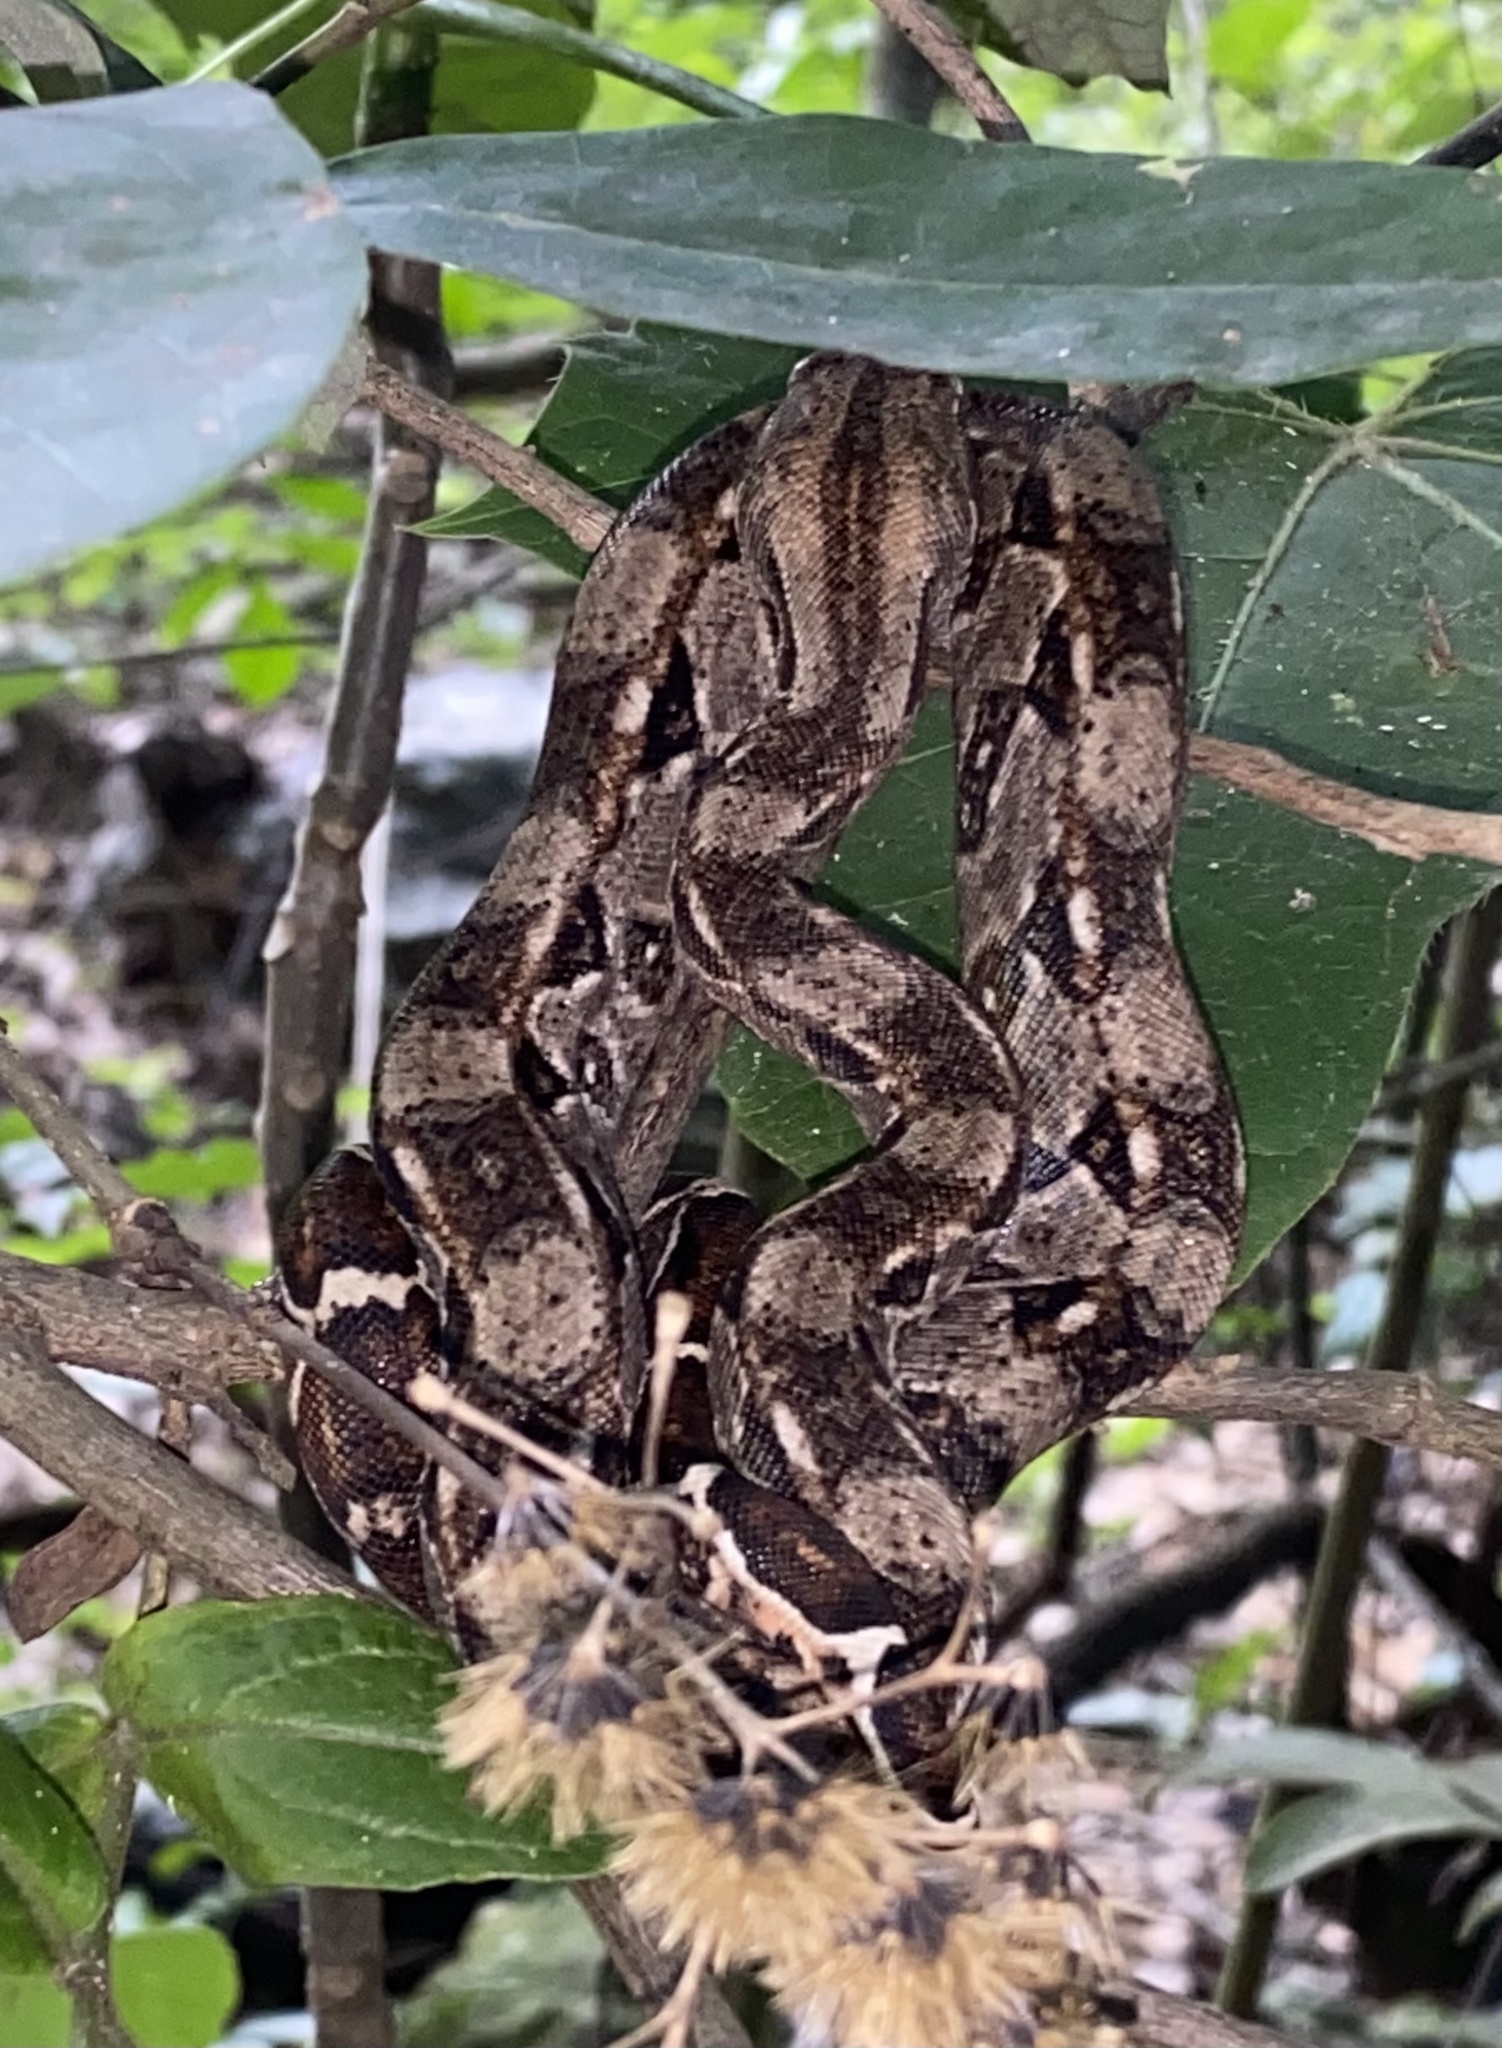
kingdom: Animalia
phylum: Chordata
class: Squamata
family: Boidae
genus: Boa
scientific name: Boa imperator
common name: Central american boa
